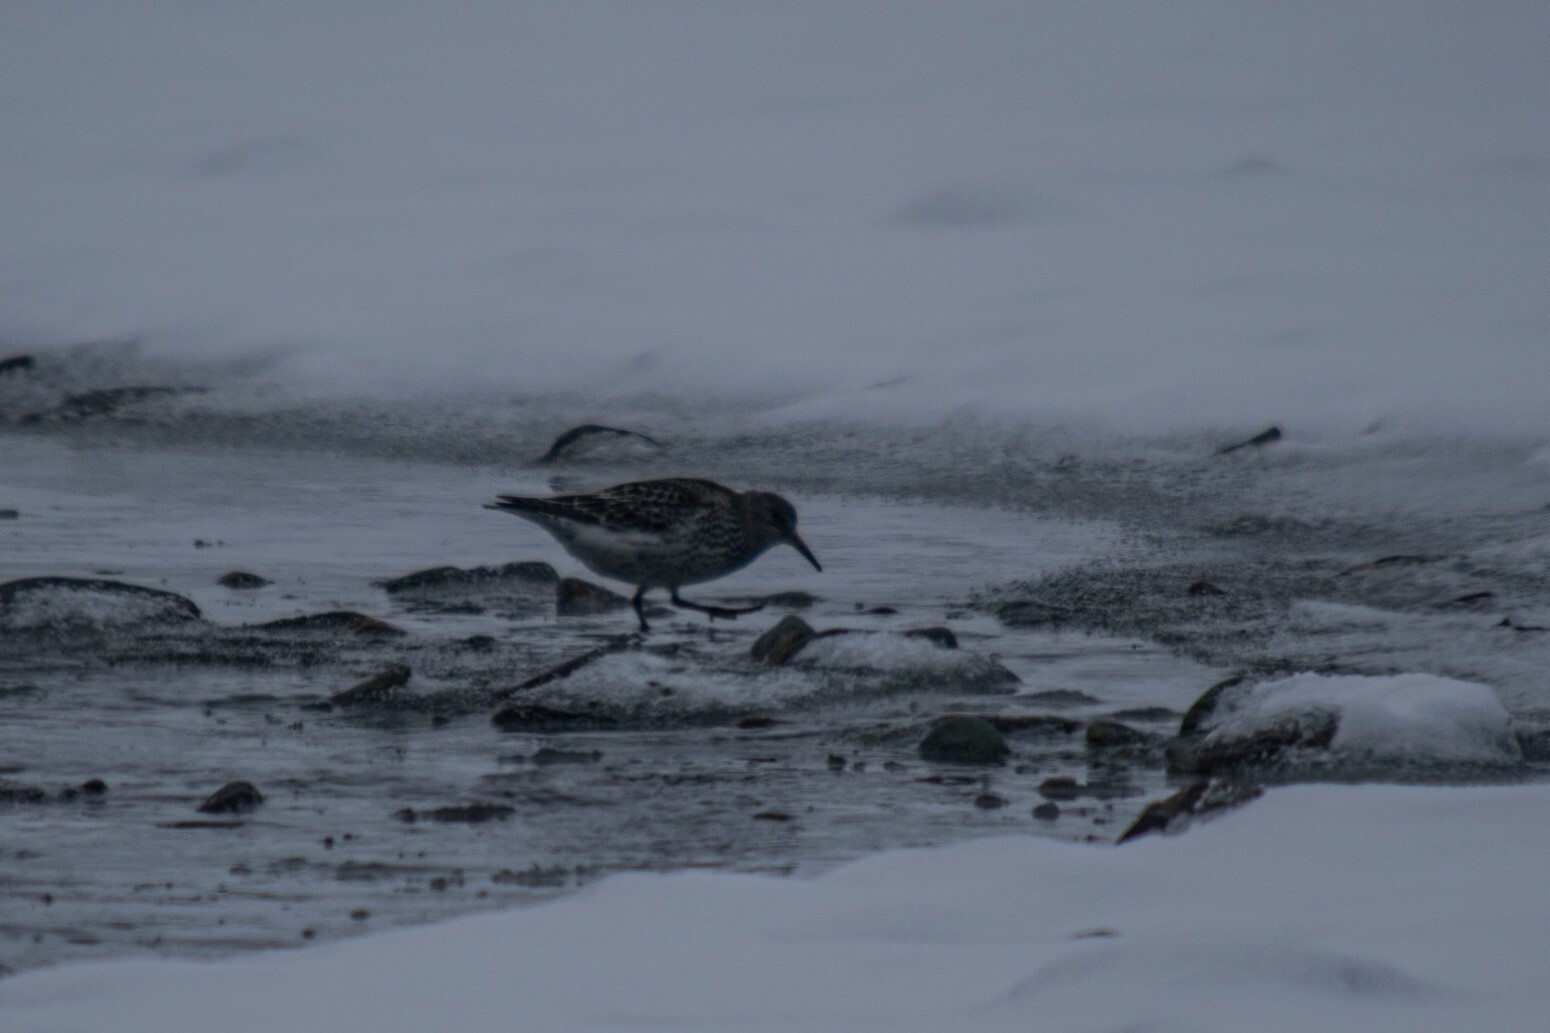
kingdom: Animalia
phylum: Chordata
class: Aves
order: Charadriiformes
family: Scolopacidae
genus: Calidris
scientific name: Calidris maritima
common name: Purple sandpiper
